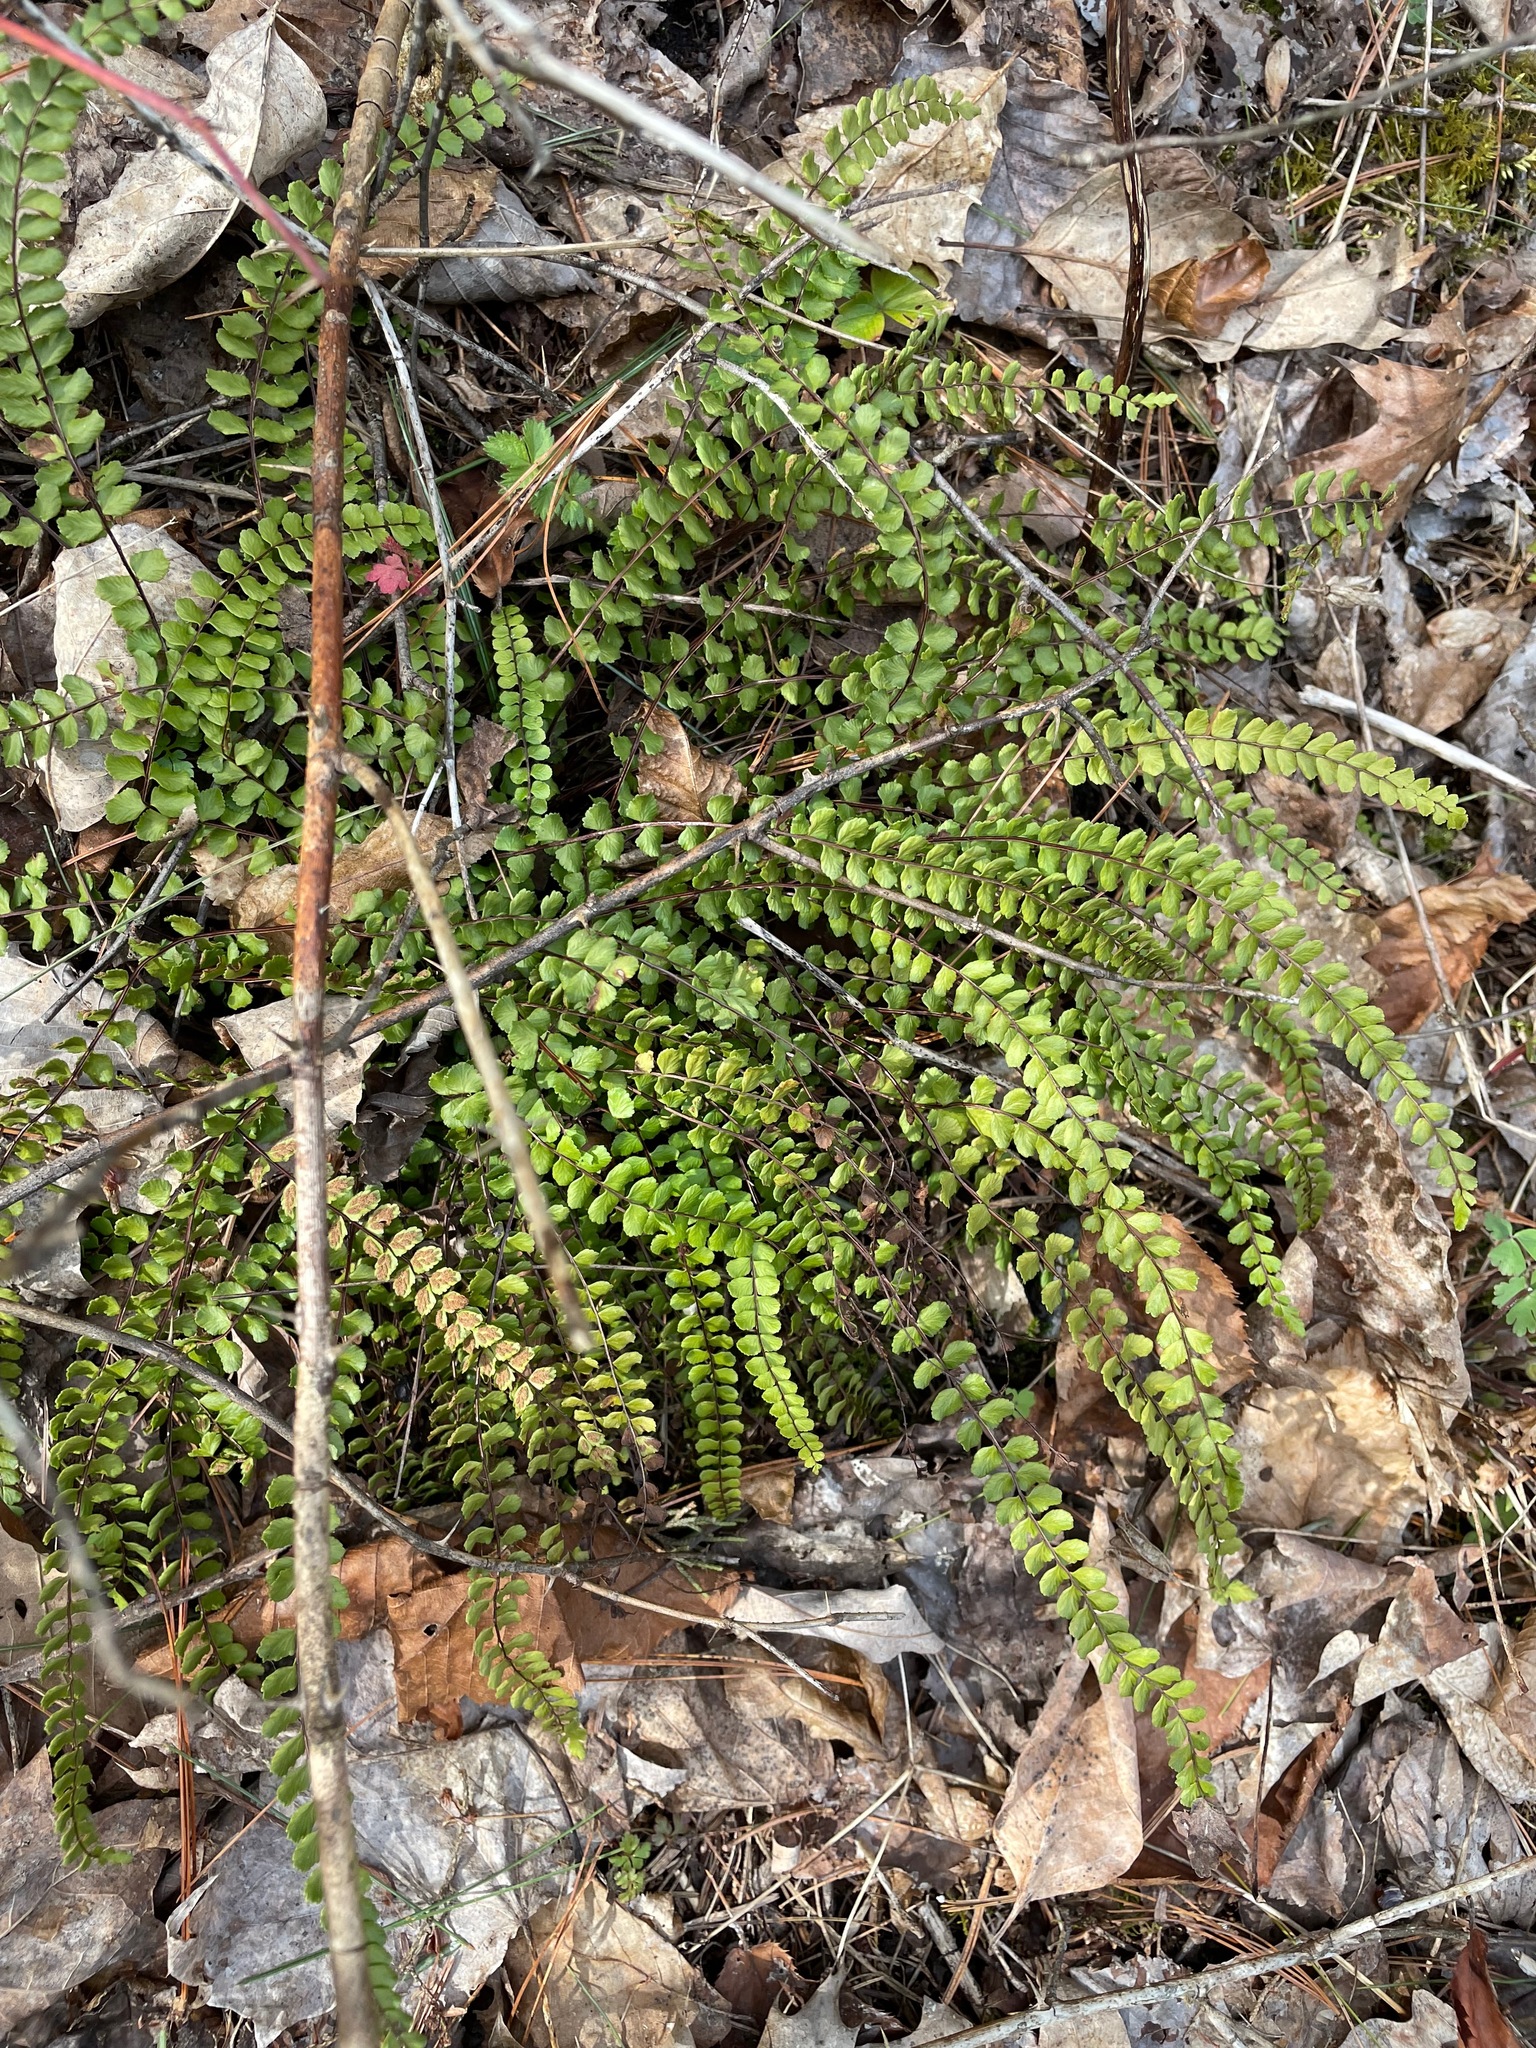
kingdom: Plantae
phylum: Tracheophyta
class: Polypodiopsida
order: Polypodiales
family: Aspleniaceae
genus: Asplenium
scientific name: Asplenium trichomanes
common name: Maidenhair spleenwort
